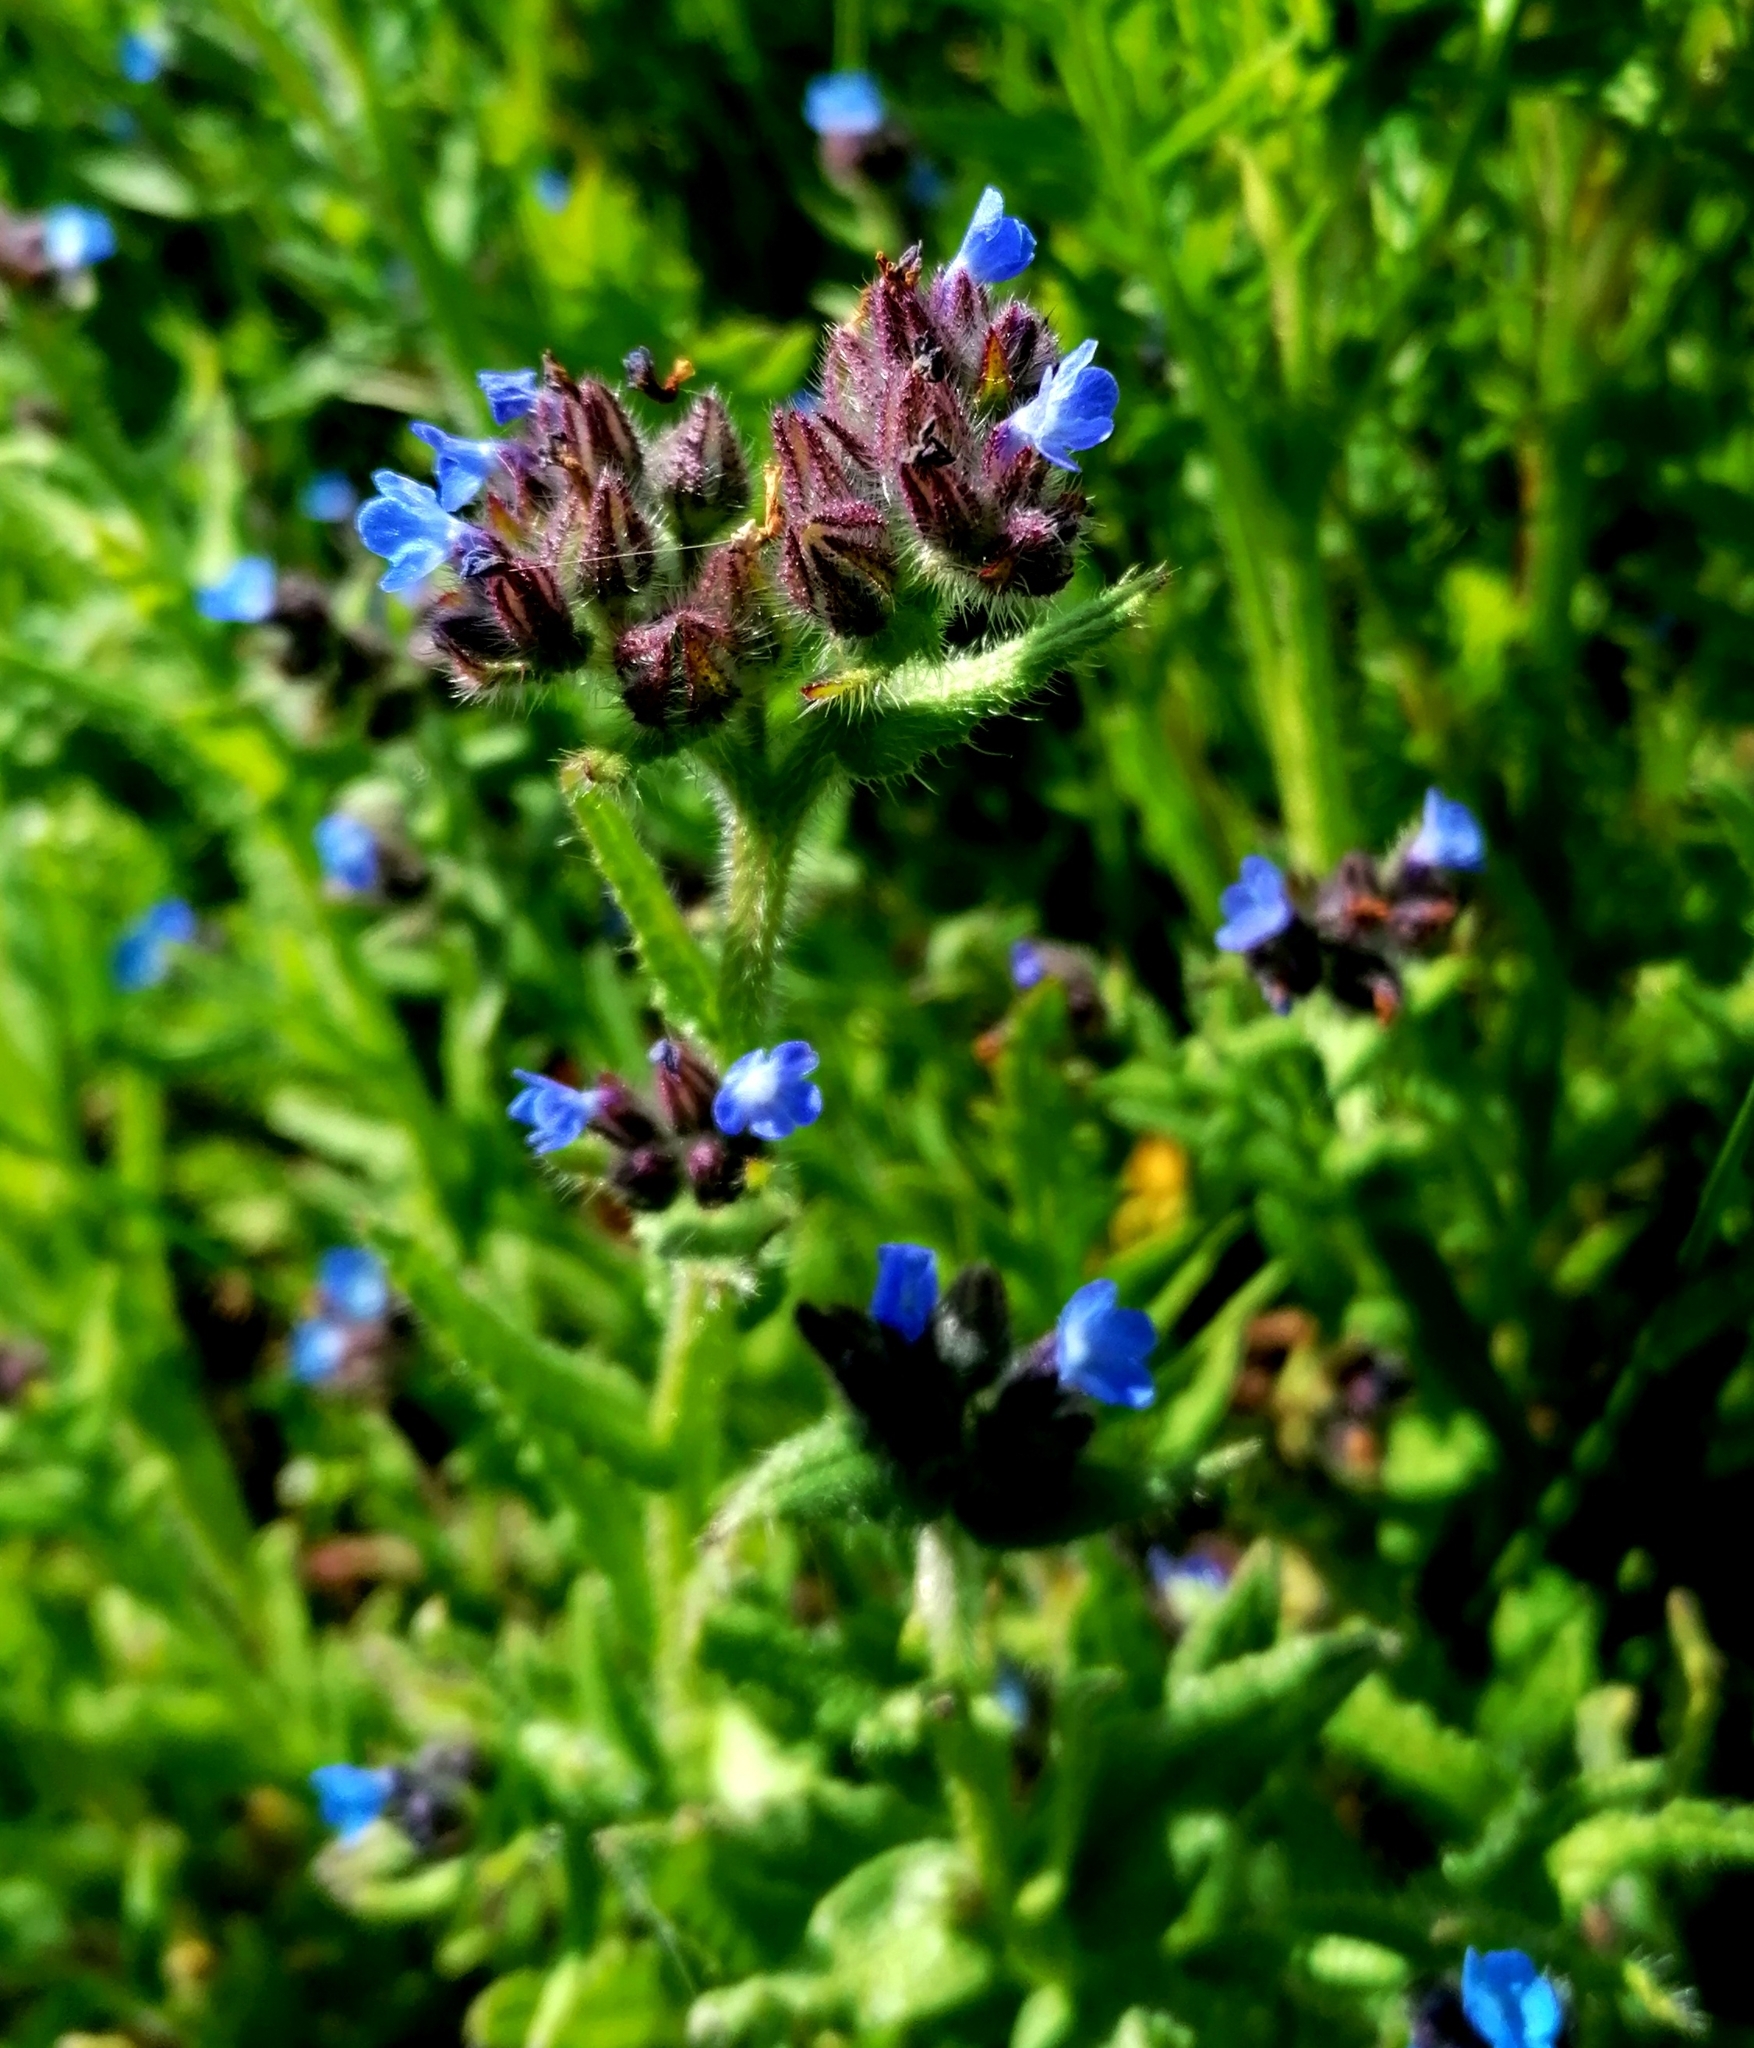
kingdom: Plantae
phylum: Tracheophyta
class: Magnoliopsida
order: Boraginales
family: Boraginaceae
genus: Lycopsis
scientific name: Lycopsis arvensis
